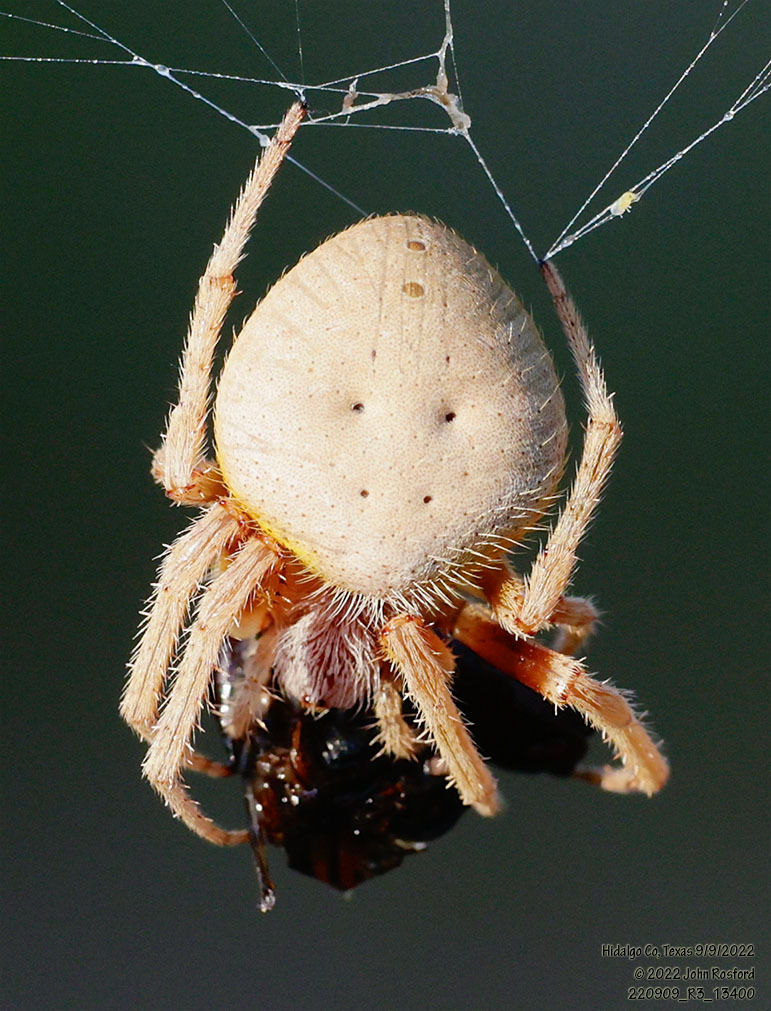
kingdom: Animalia
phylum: Arthropoda
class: Arachnida
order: Araneae
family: Araneidae
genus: Eriophora
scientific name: Eriophora ravilla
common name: Orb weavers
